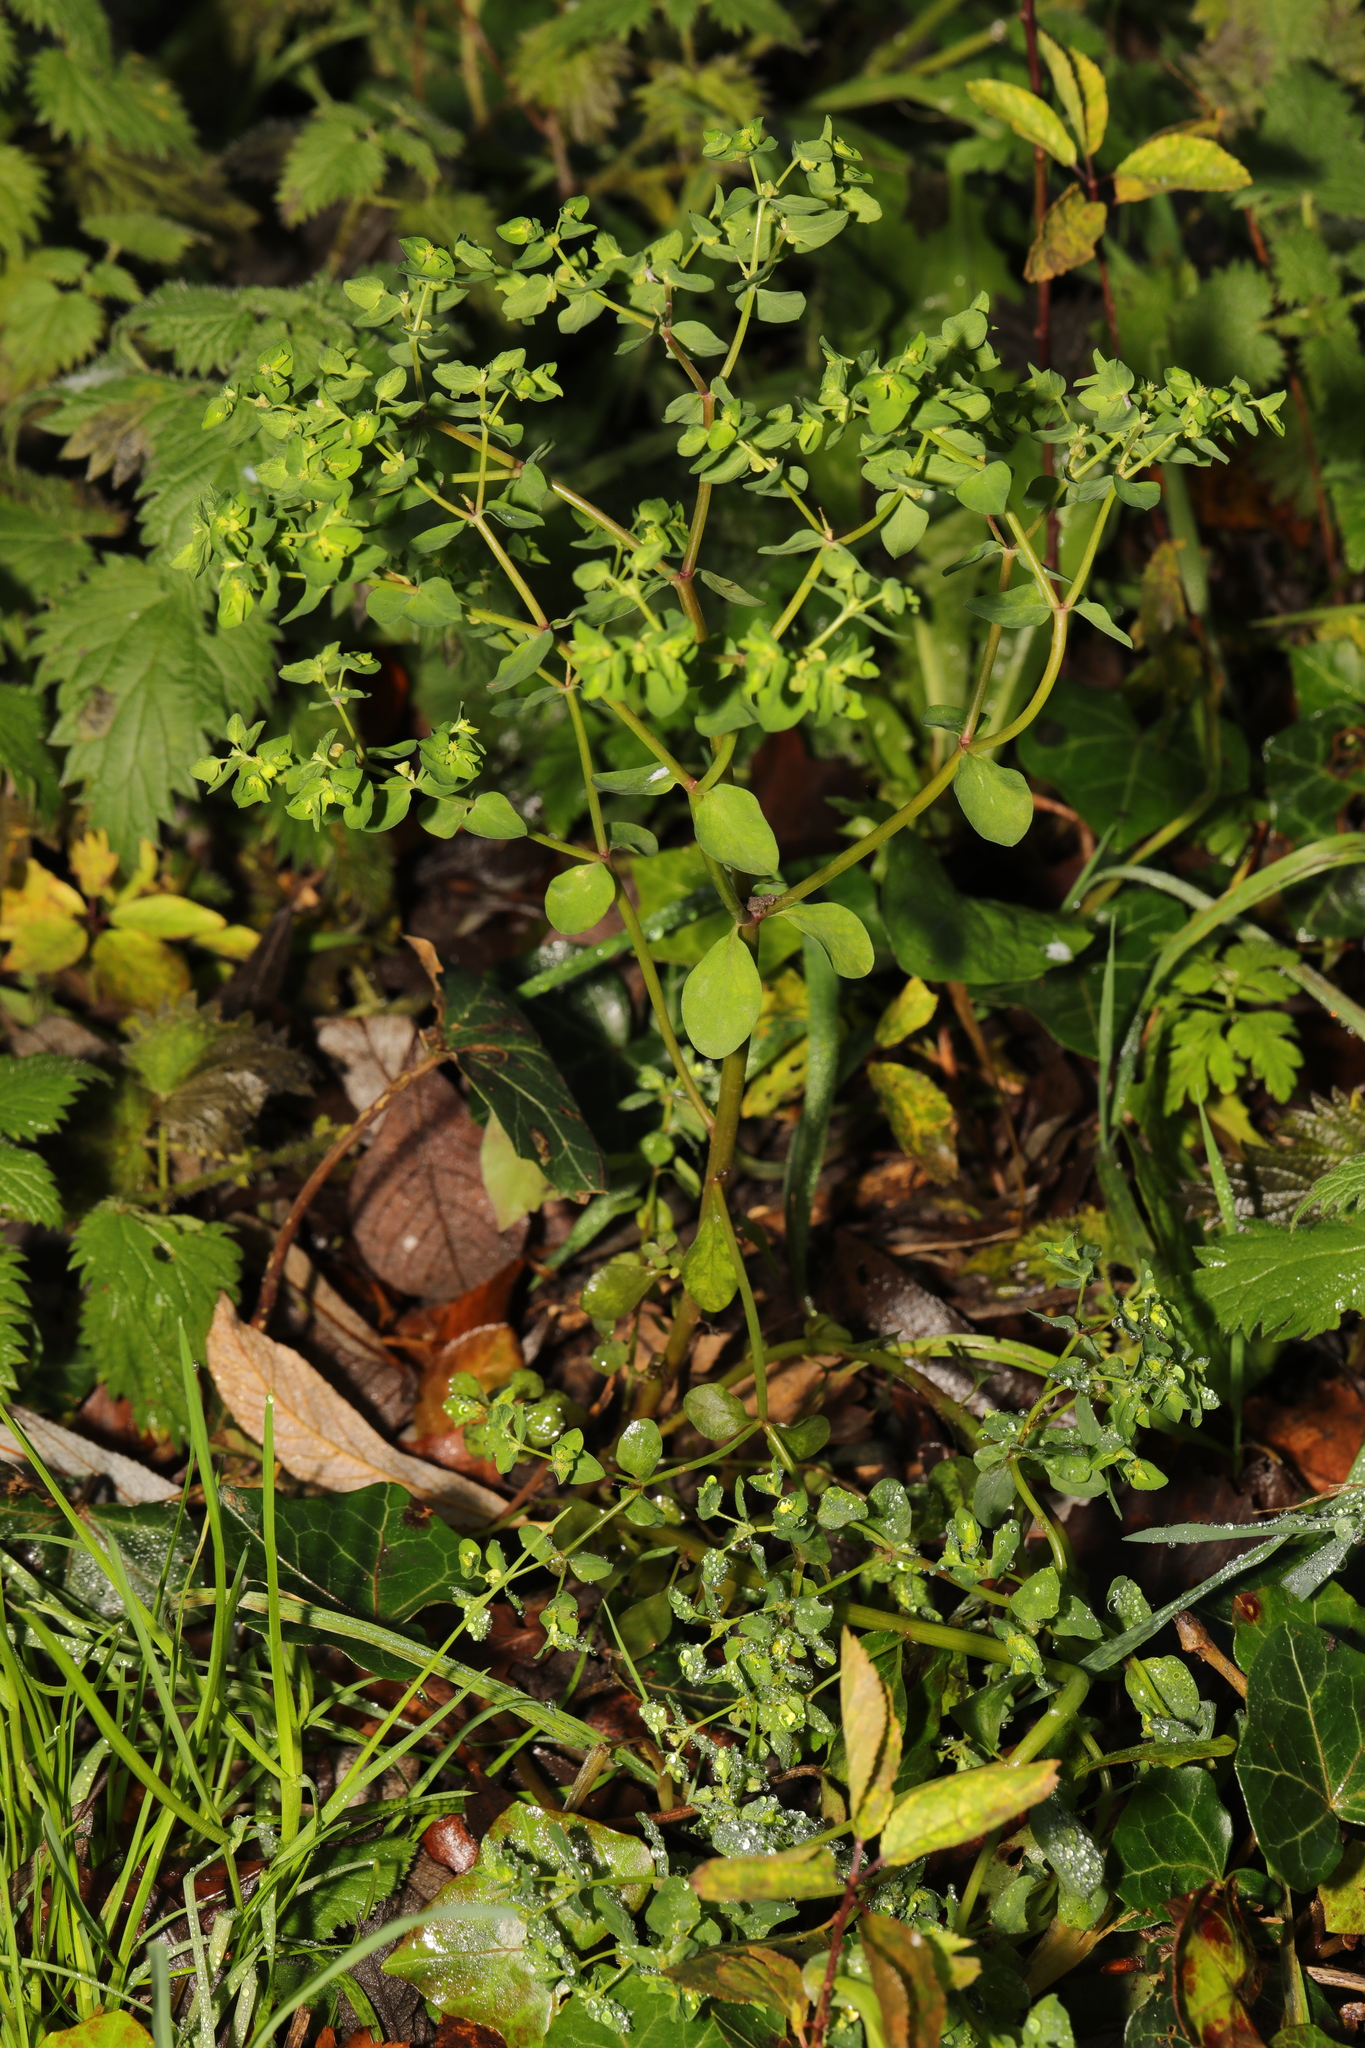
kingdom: Plantae
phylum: Tracheophyta
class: Magnoliopsida
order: Malpighiales
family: Euphorbiaceae
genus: Euphorbia
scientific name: Euphorbia peplus
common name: Petty spurge
